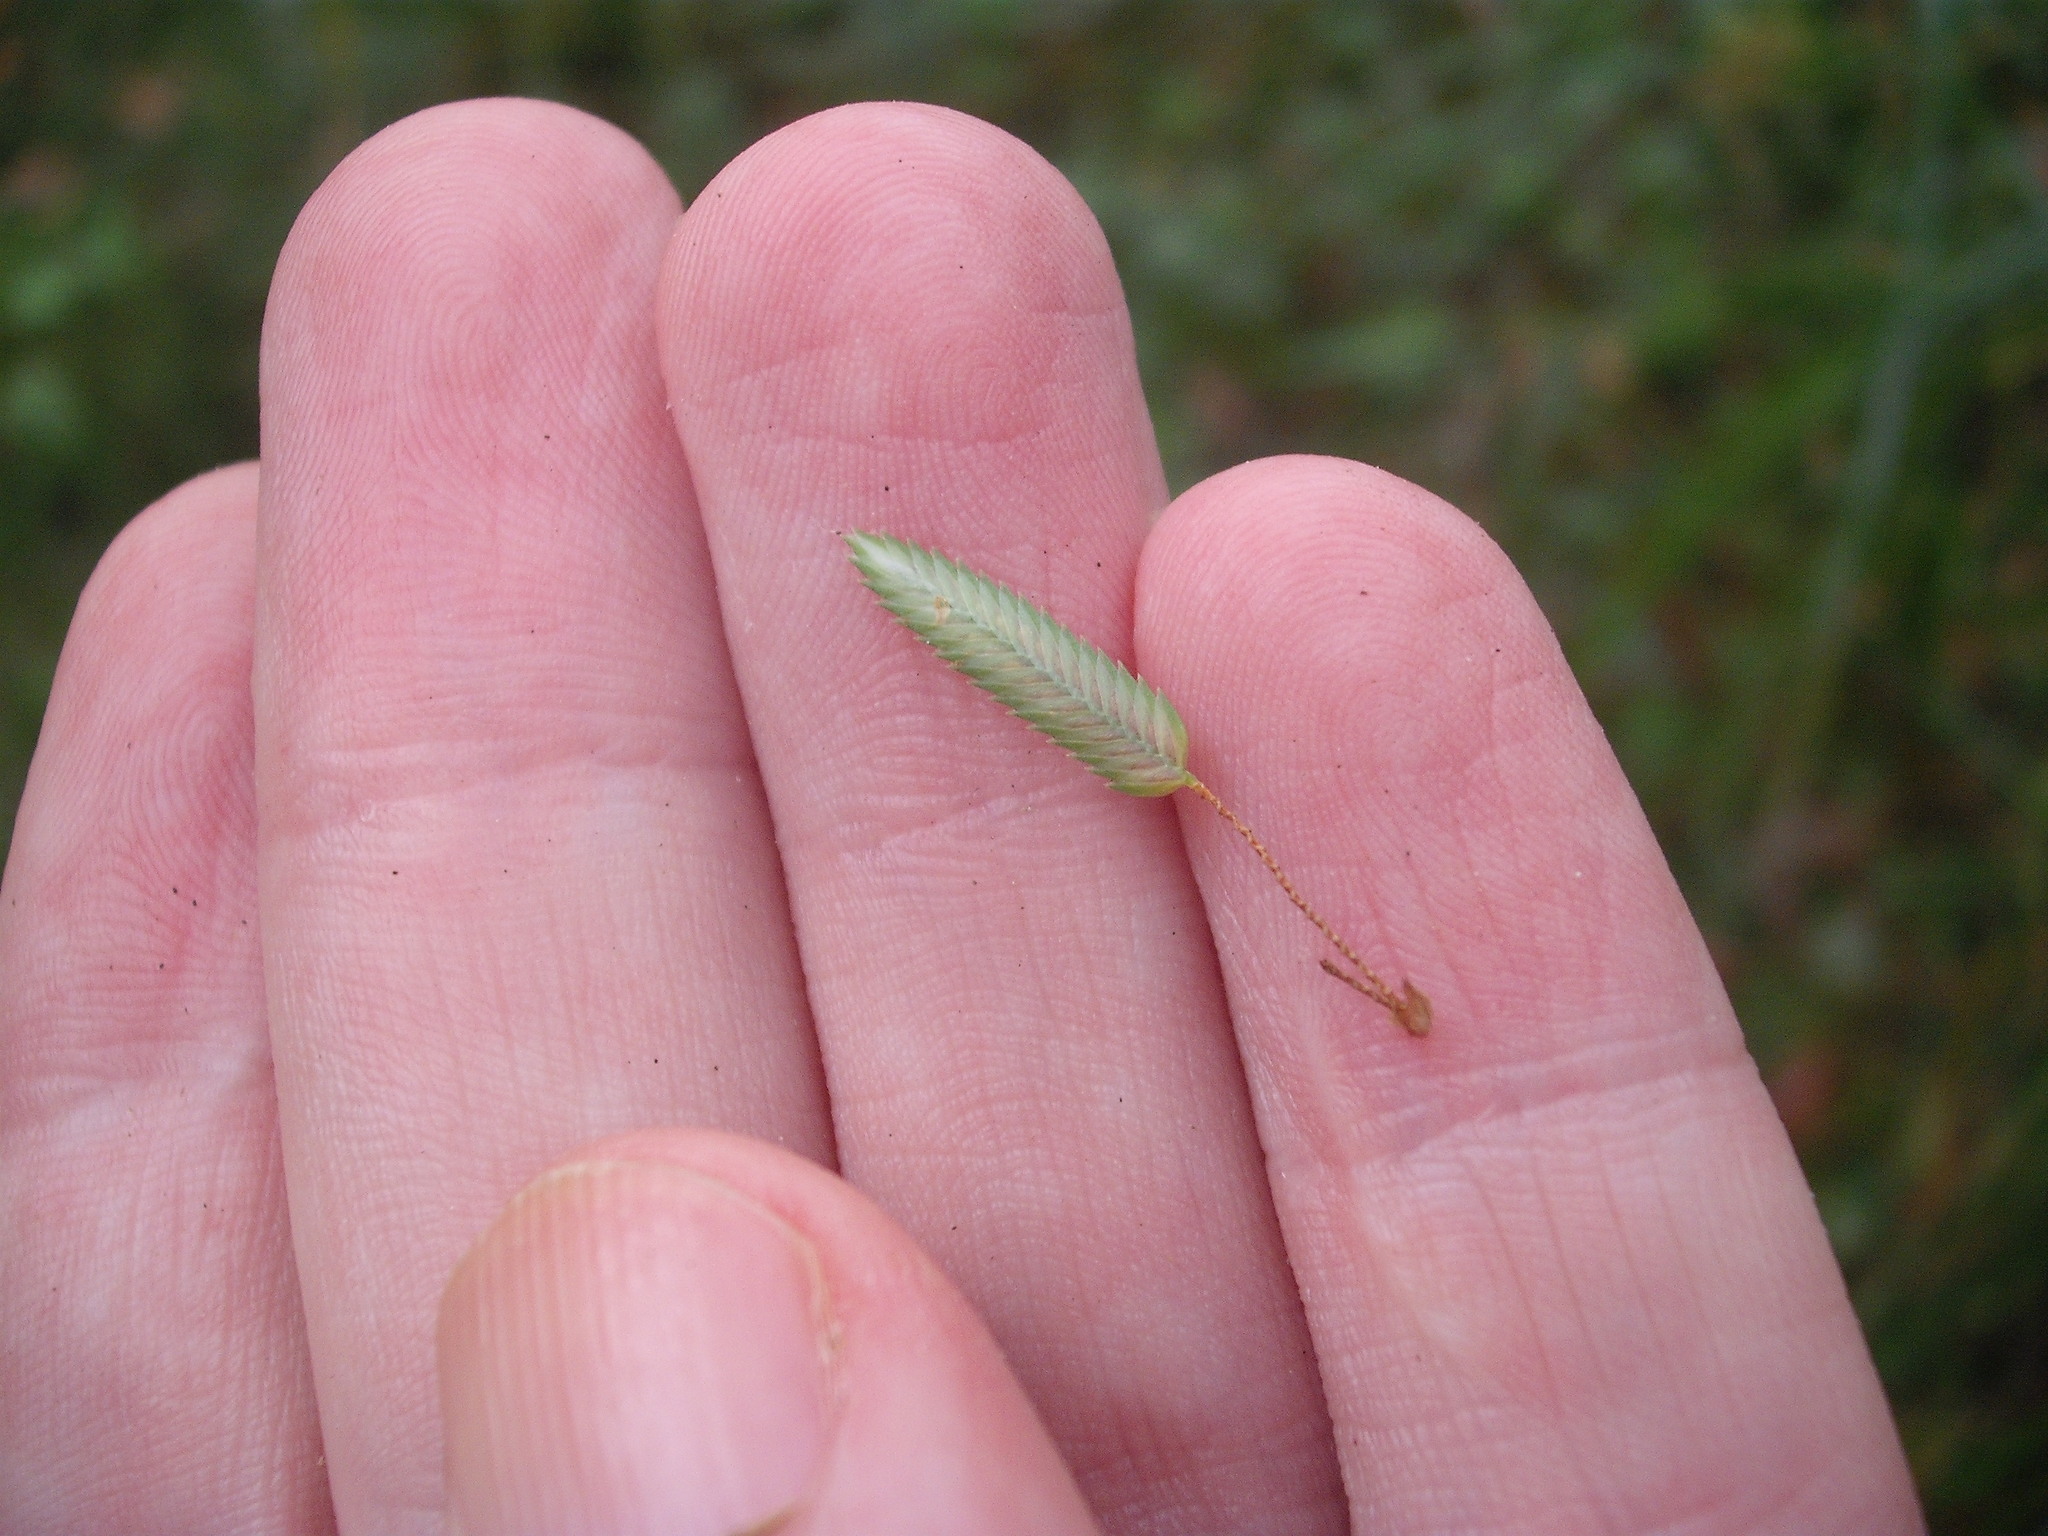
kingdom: Plantae
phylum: Tracheophyta
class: Liliopsida
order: Poales
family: Cyperaceae
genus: Cyperus
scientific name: Cyperus eragrostis
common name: Tall flatsedge
